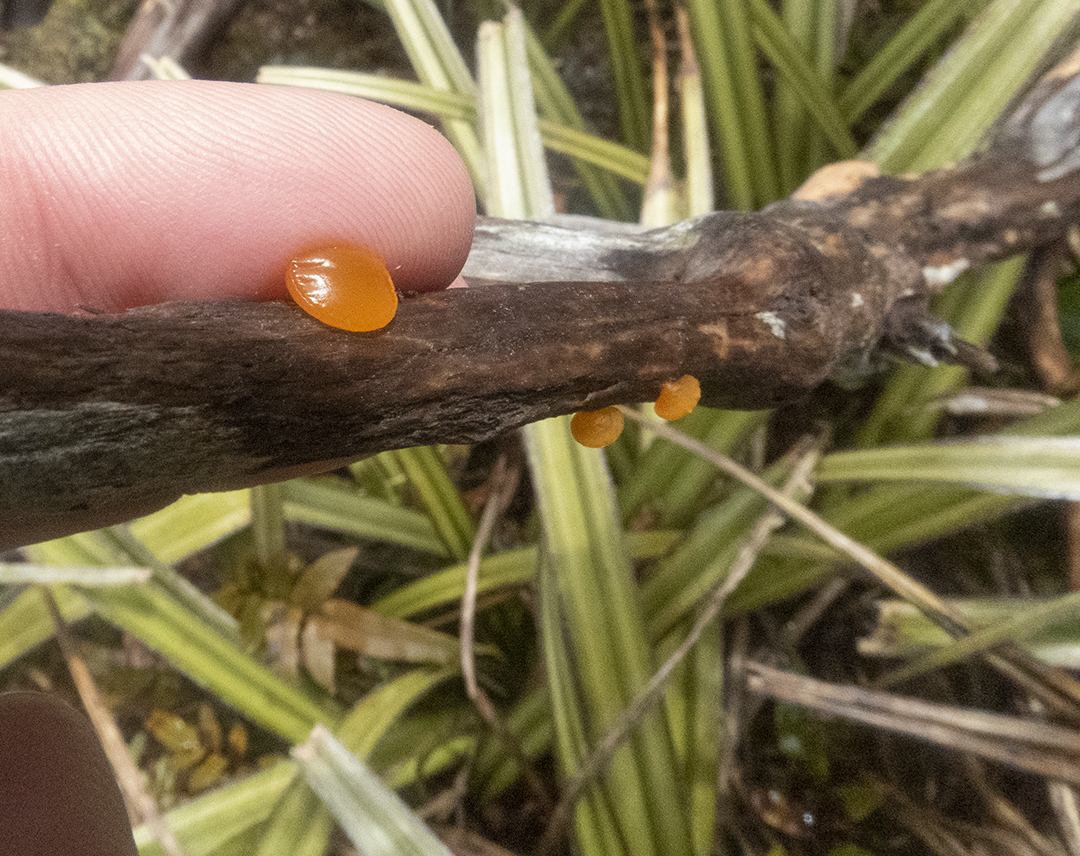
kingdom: Fungi
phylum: Basidiomycota
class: Dacrymycetes
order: Dacrymycetales
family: Dacrymycetaceae
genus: Heterotextus
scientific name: Heterotextus miltinus
